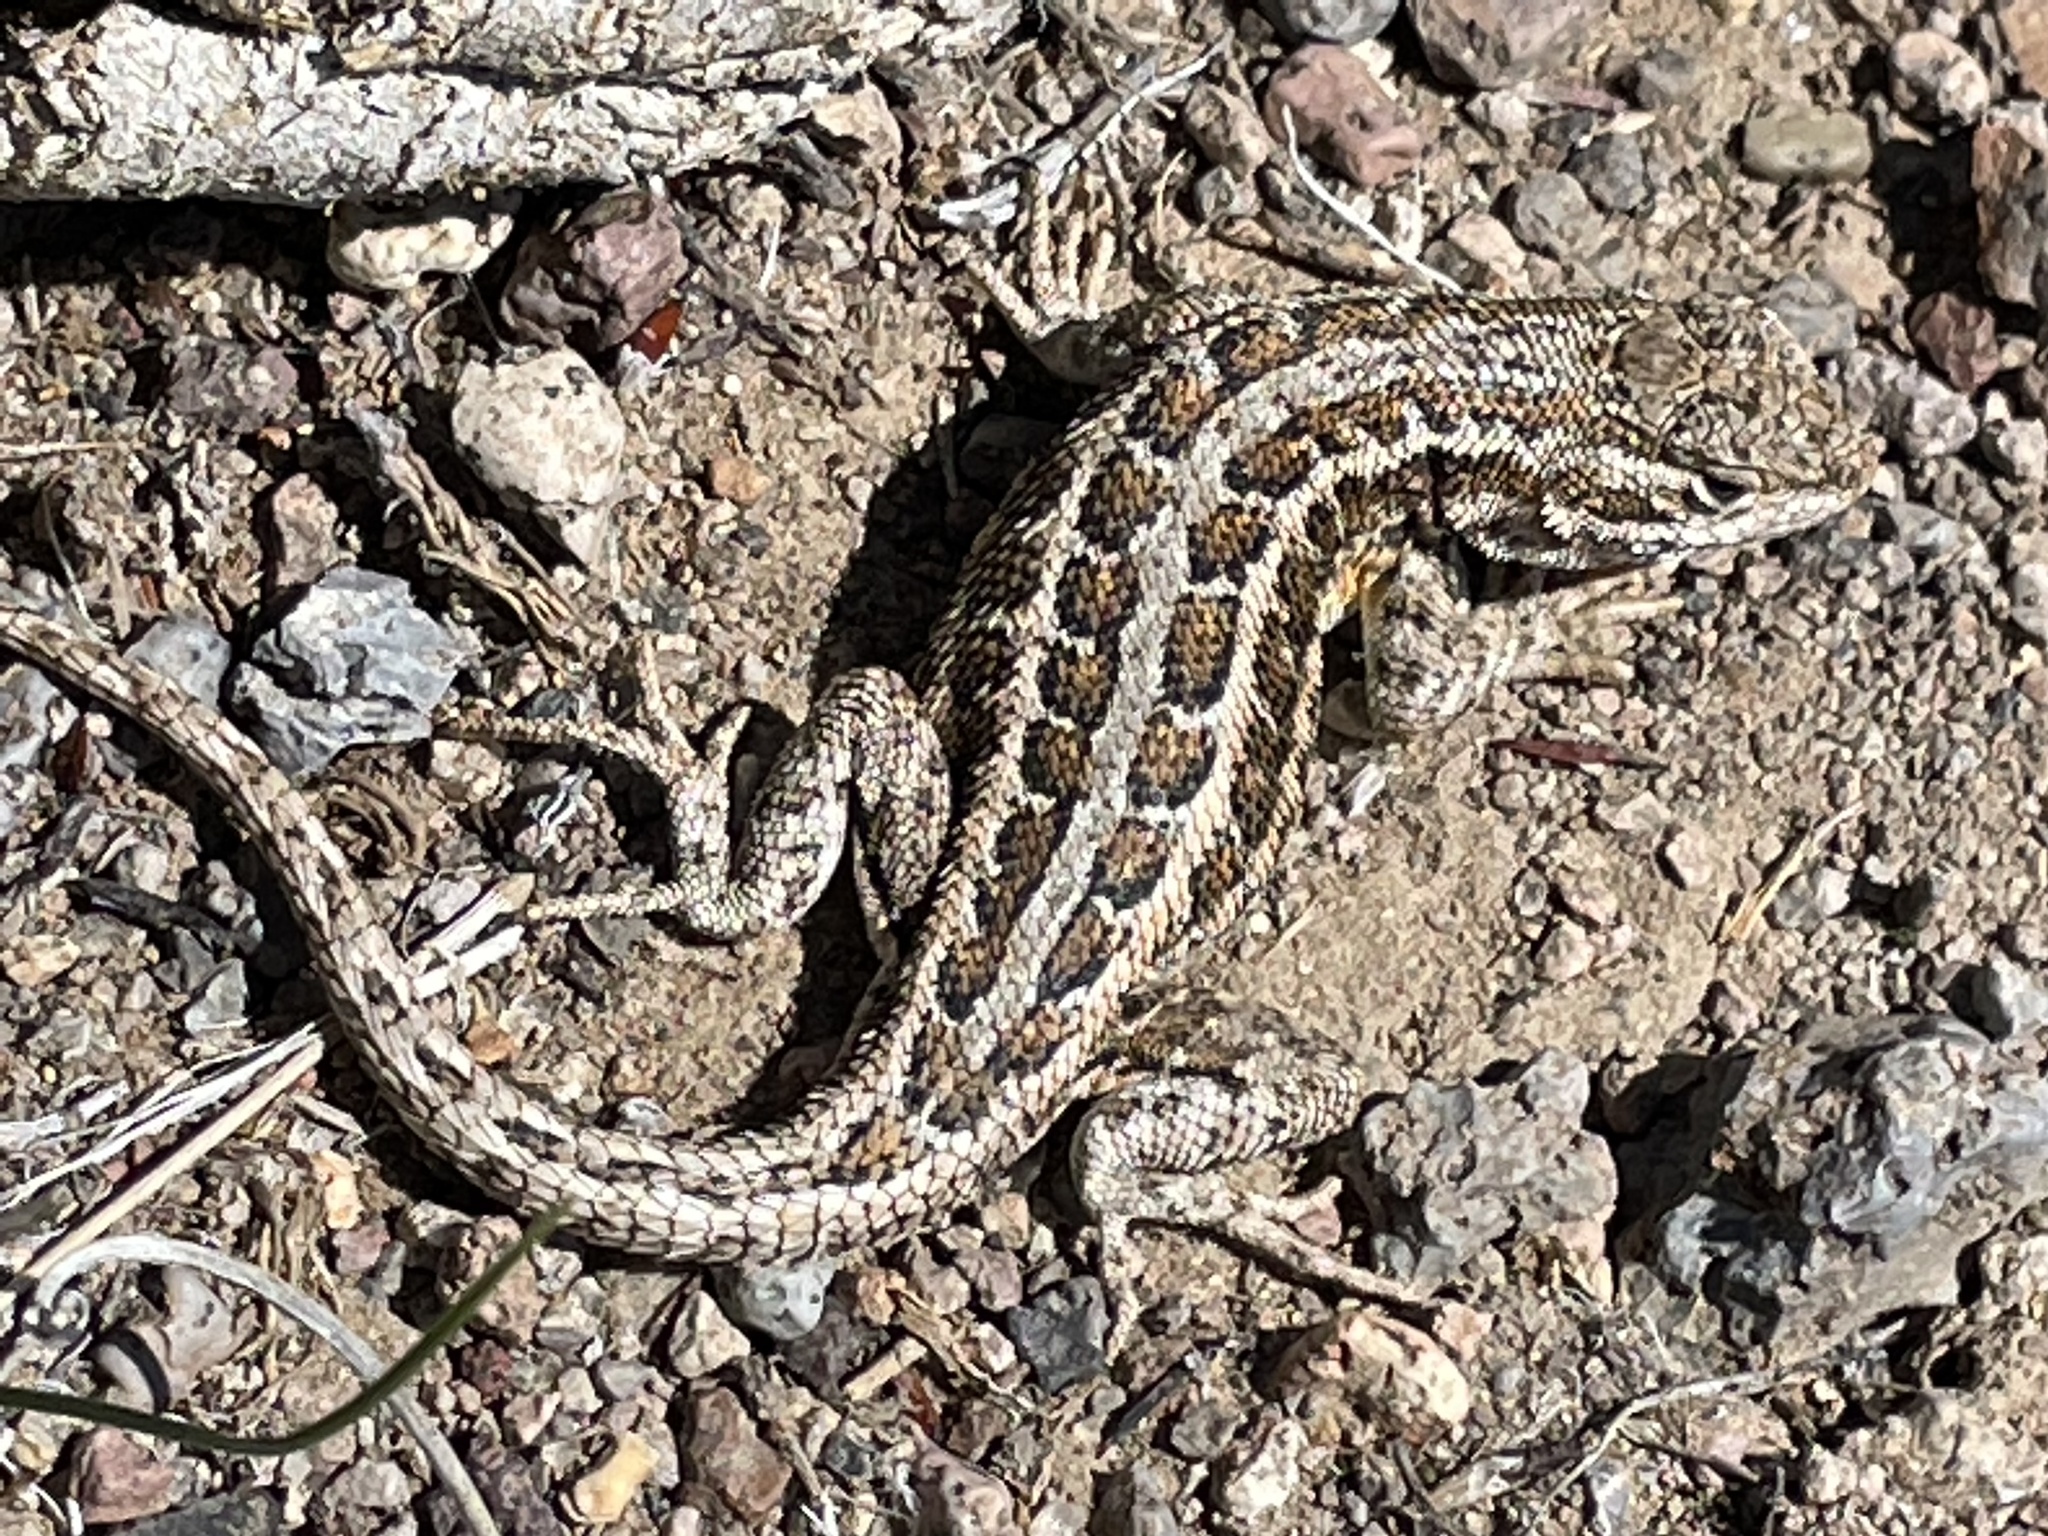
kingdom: Animalia
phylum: Chordata
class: Squamata
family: Phrynosomatidae
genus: Sceloporus
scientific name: Sceloporus graciosus
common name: Sagebrush lizard
